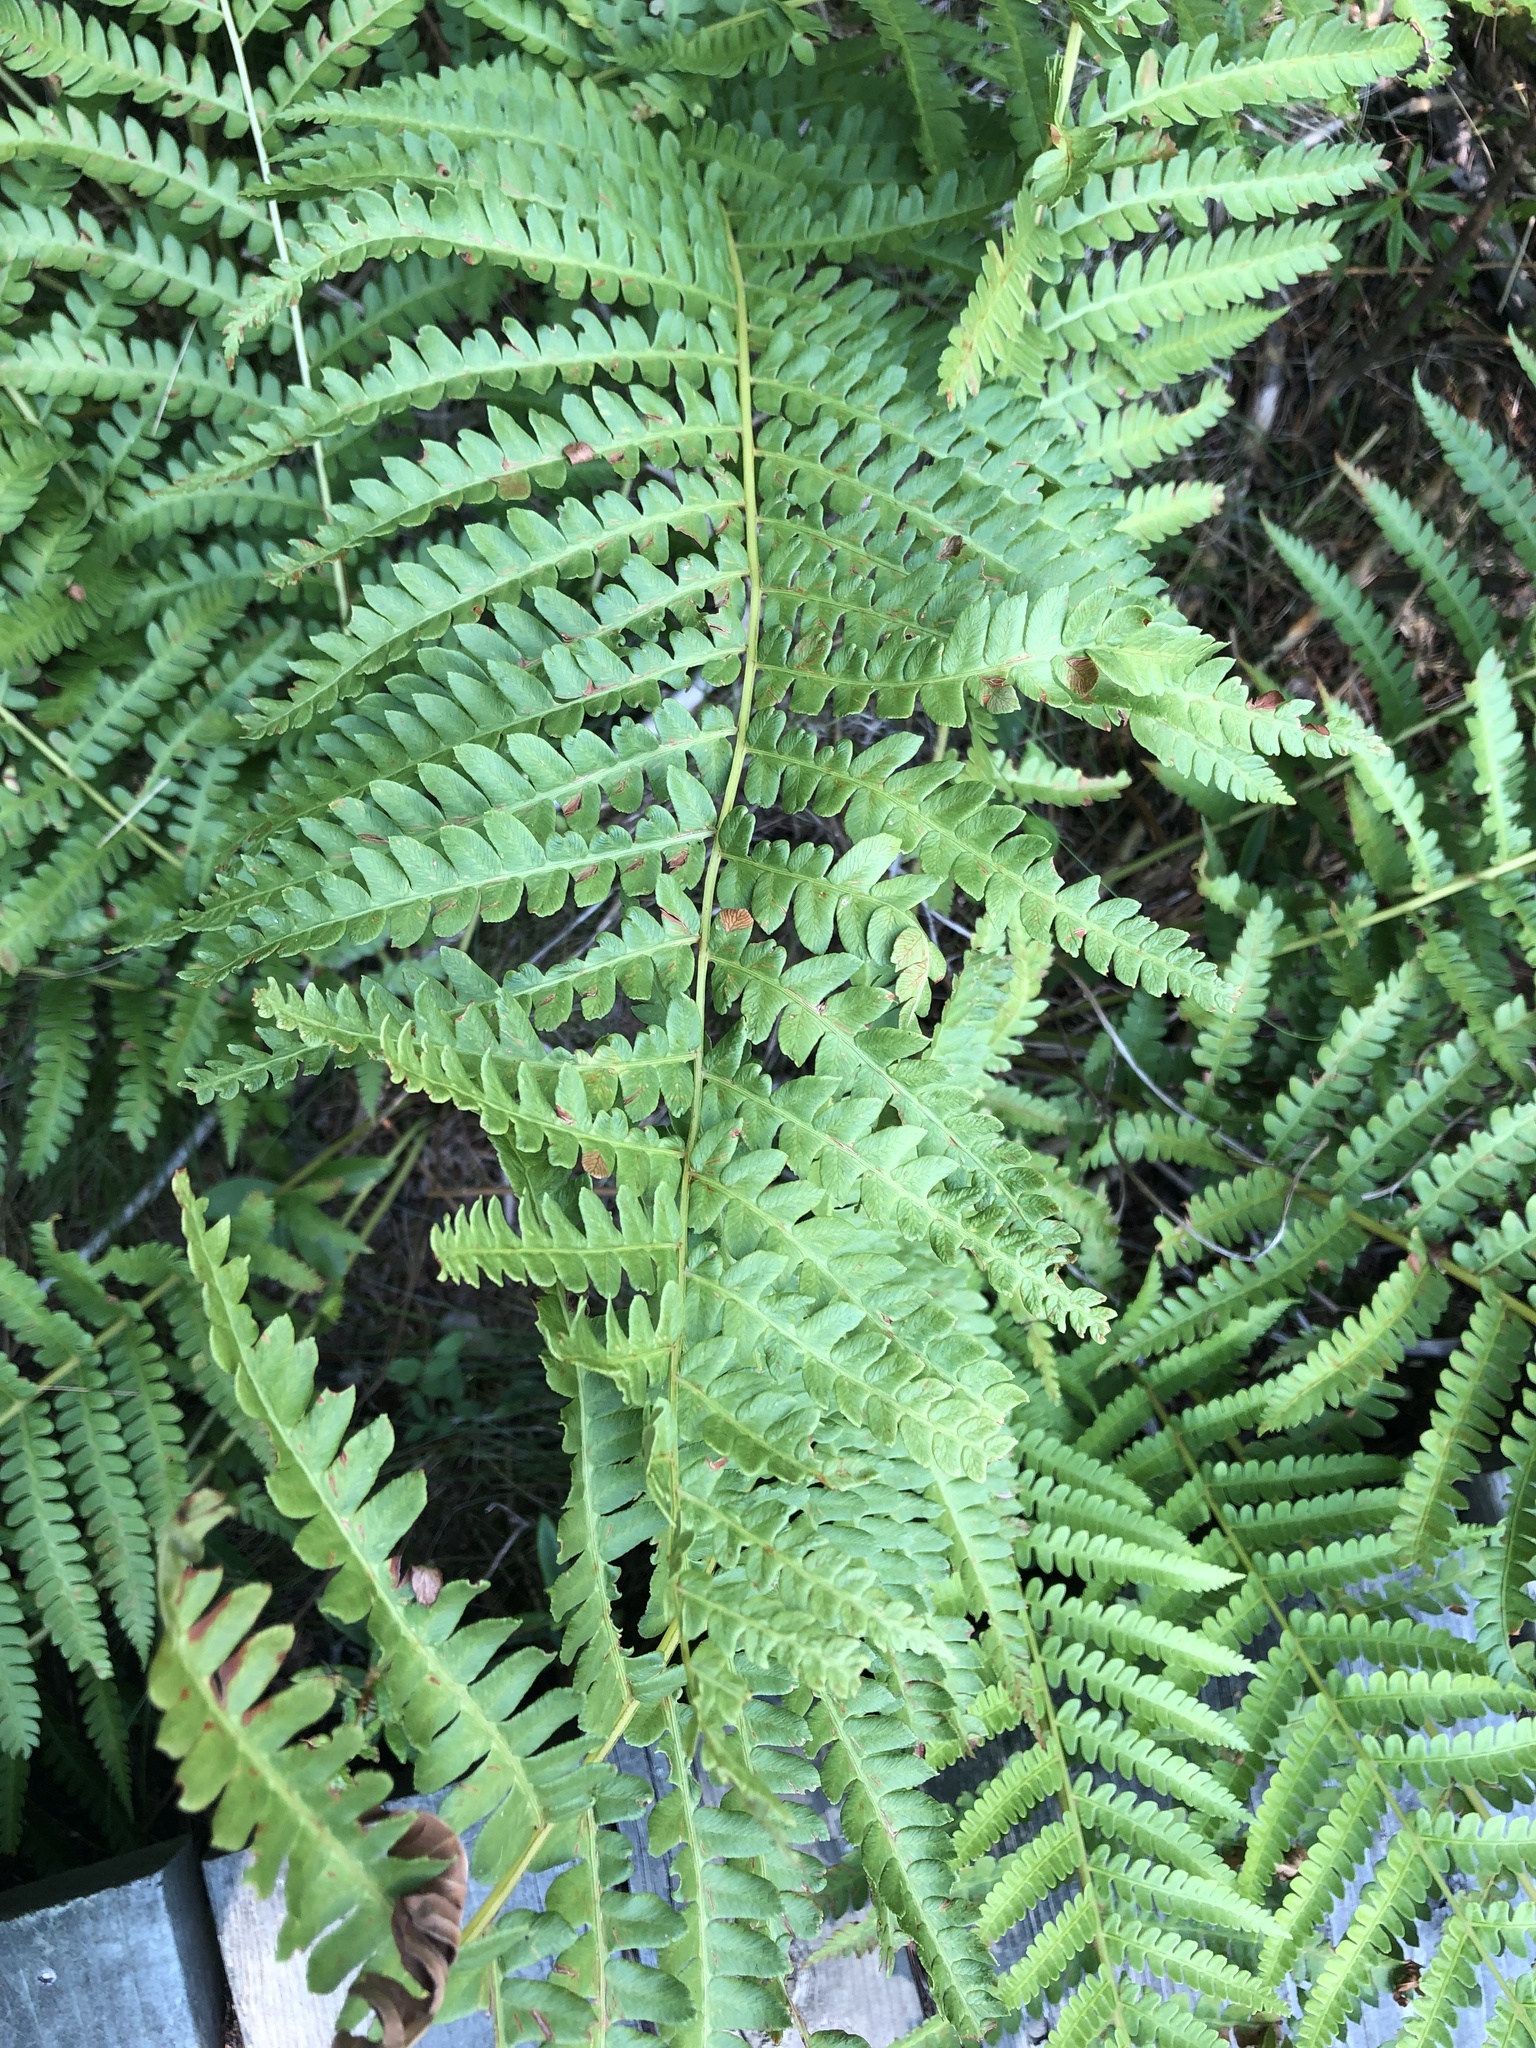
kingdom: Plantae
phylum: Tracheophyta
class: Polypodiopsida
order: Osmundales
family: Osmundaceae
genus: Osmundastrum
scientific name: Osmundastrum cinnamomeum
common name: Cinnamon fern
